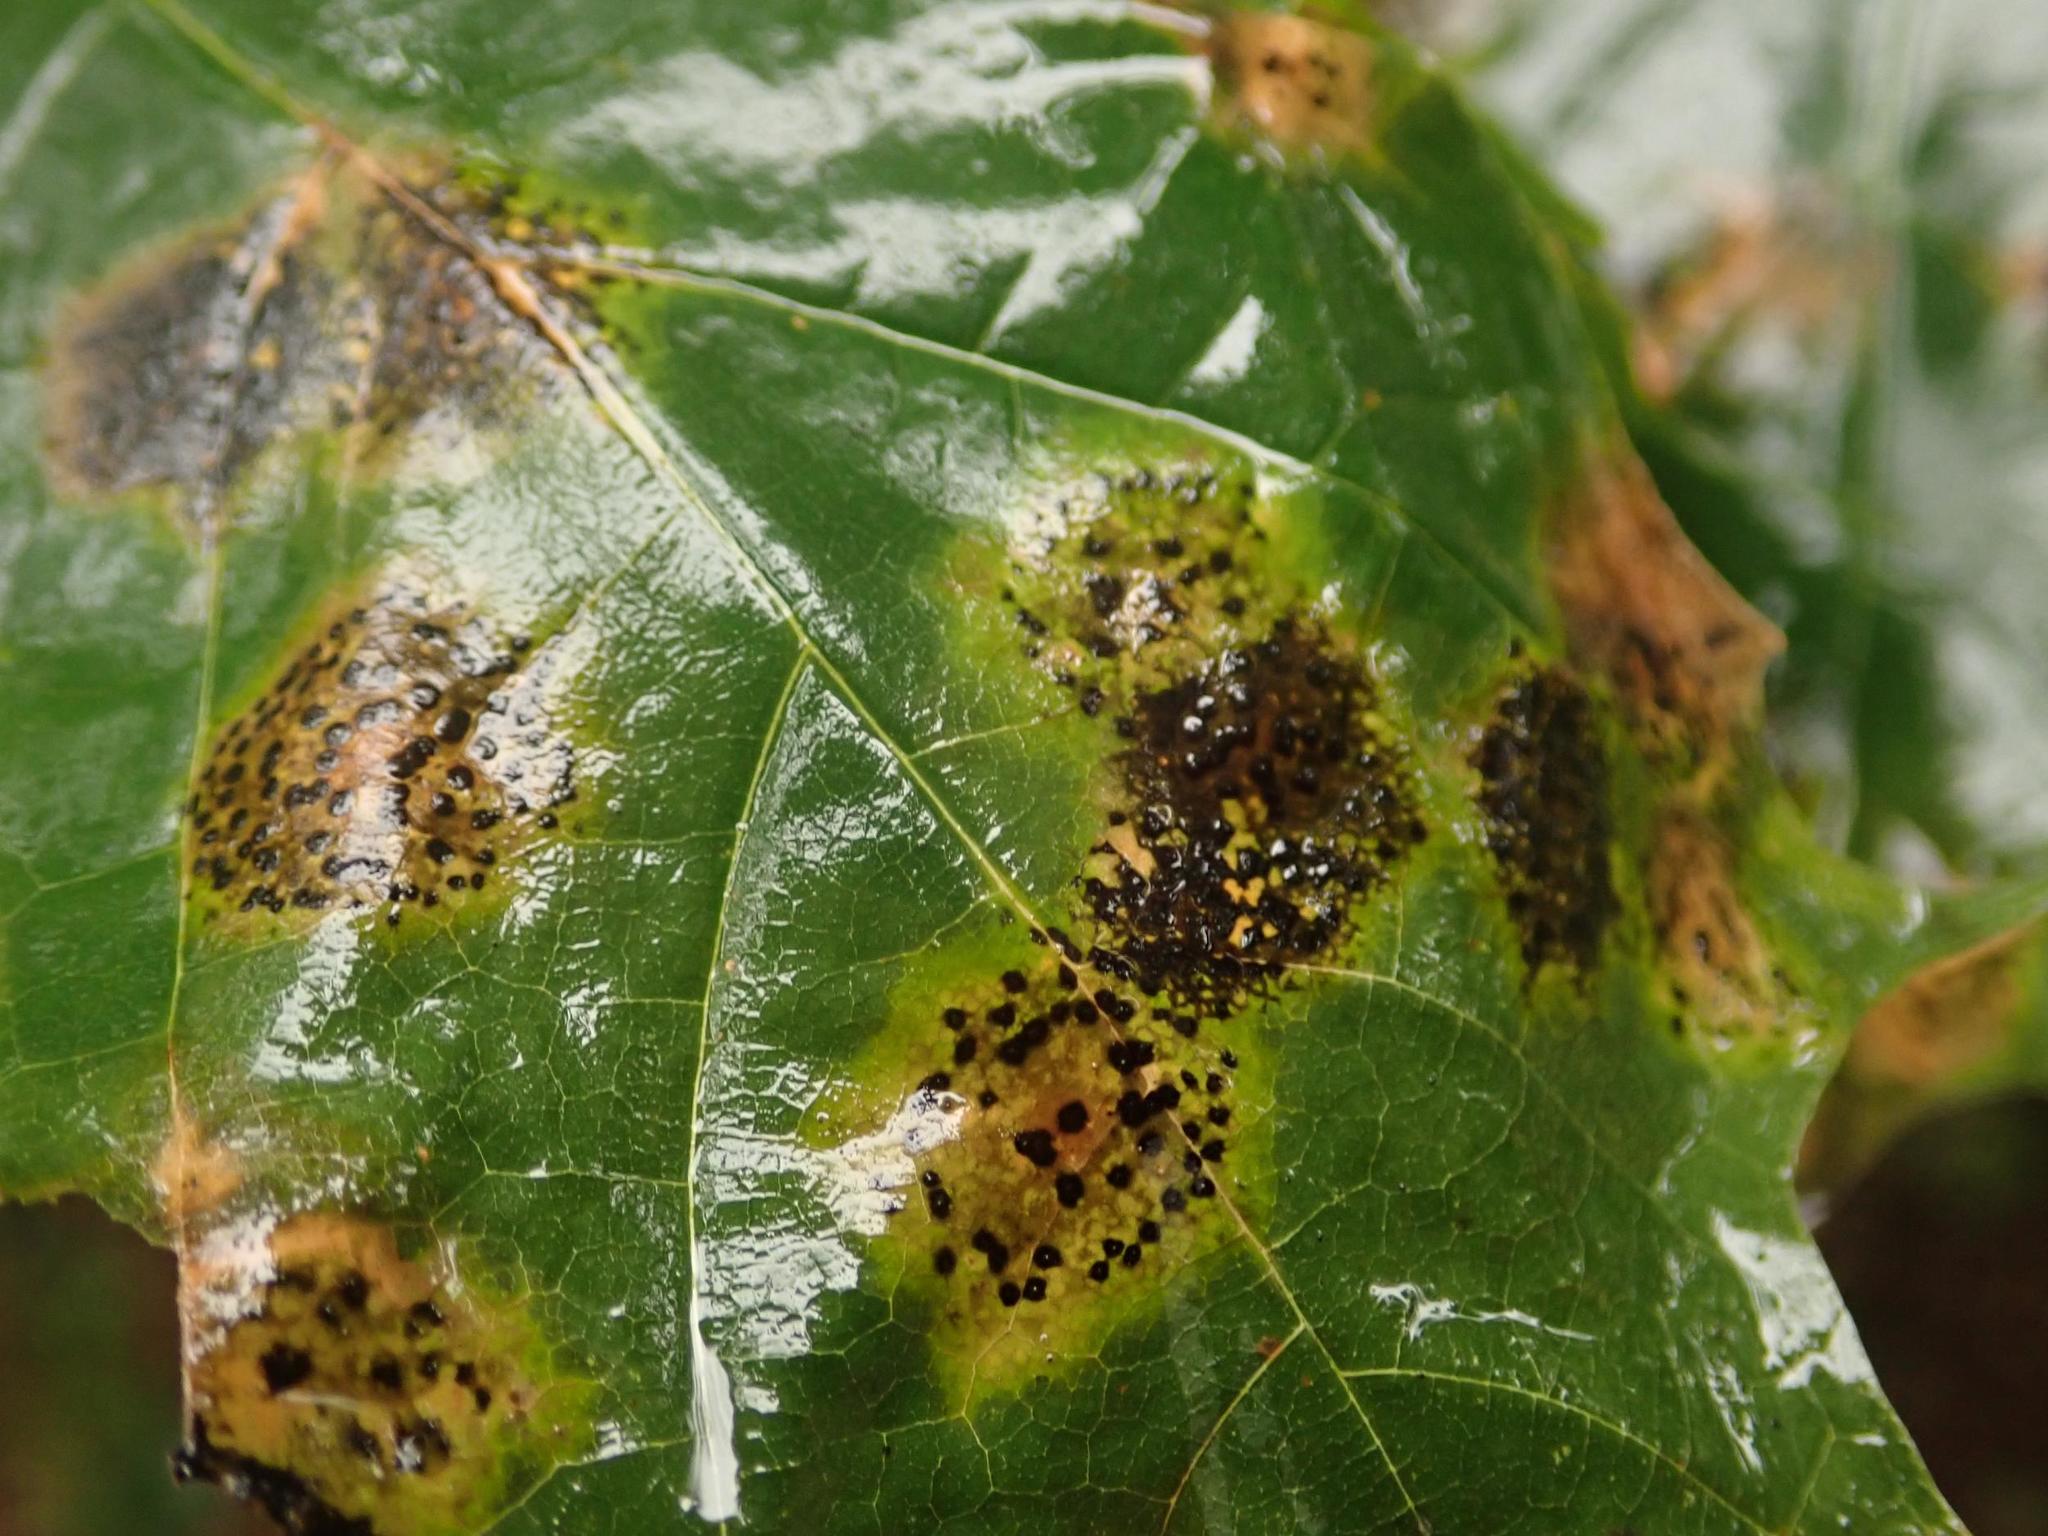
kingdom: Fungi
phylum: Ascomycota
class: Leotiomycetes
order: Rhytismatales
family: Rhytismataceae
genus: Rhytisma
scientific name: Rhytisma punctatum
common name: Speckled tar spot
